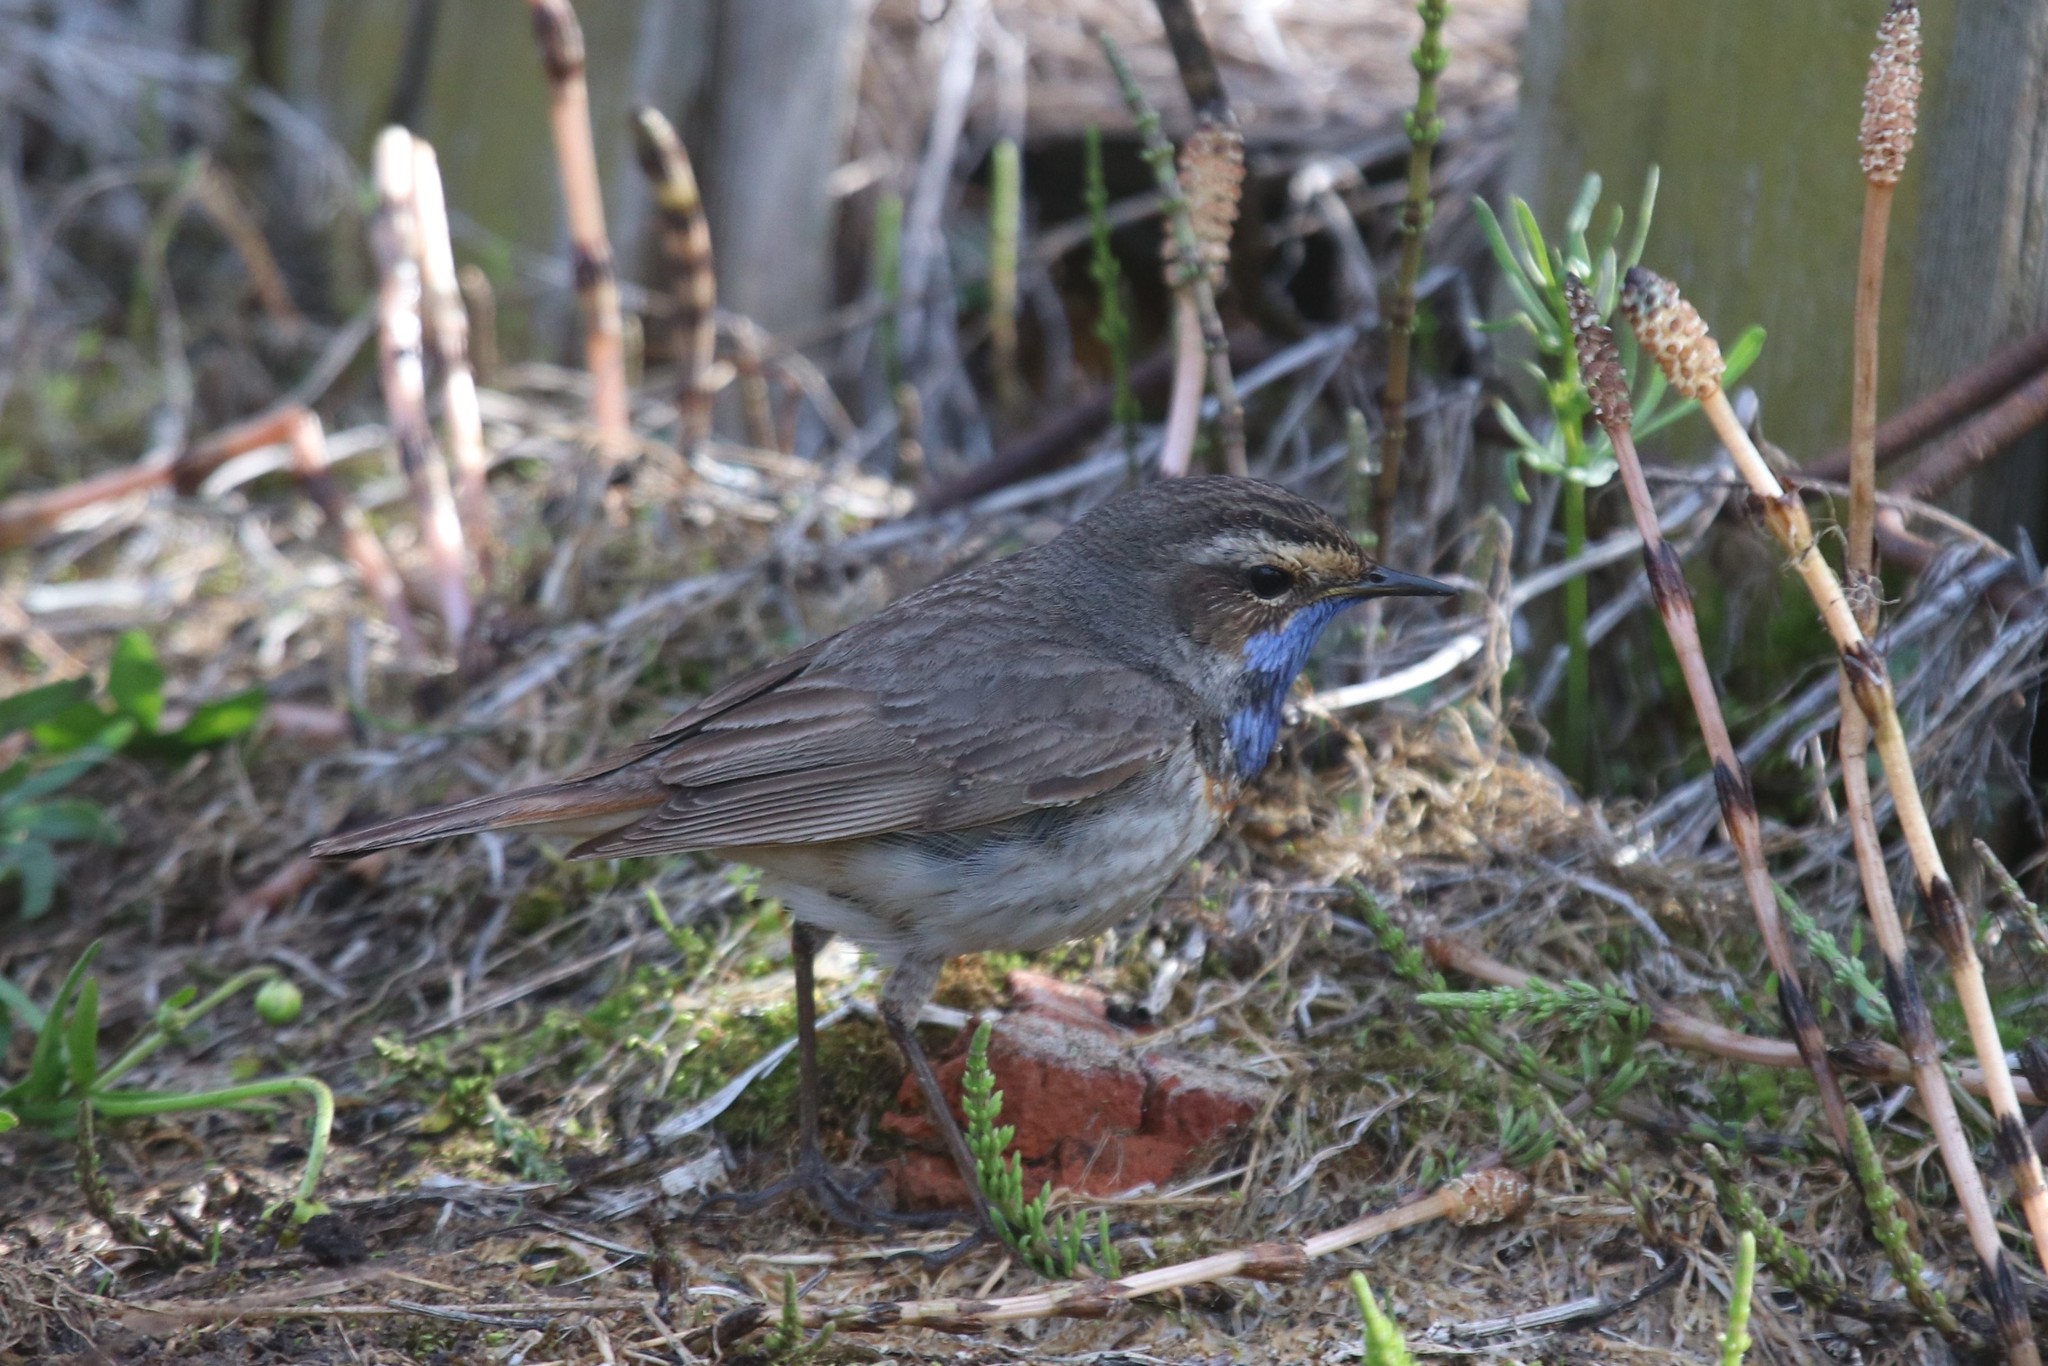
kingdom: Animalia
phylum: Chordata
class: Aves
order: Passeriformes
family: Muscicapidae
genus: Luscinia
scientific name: Luscinia svecica
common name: Bluethroat
